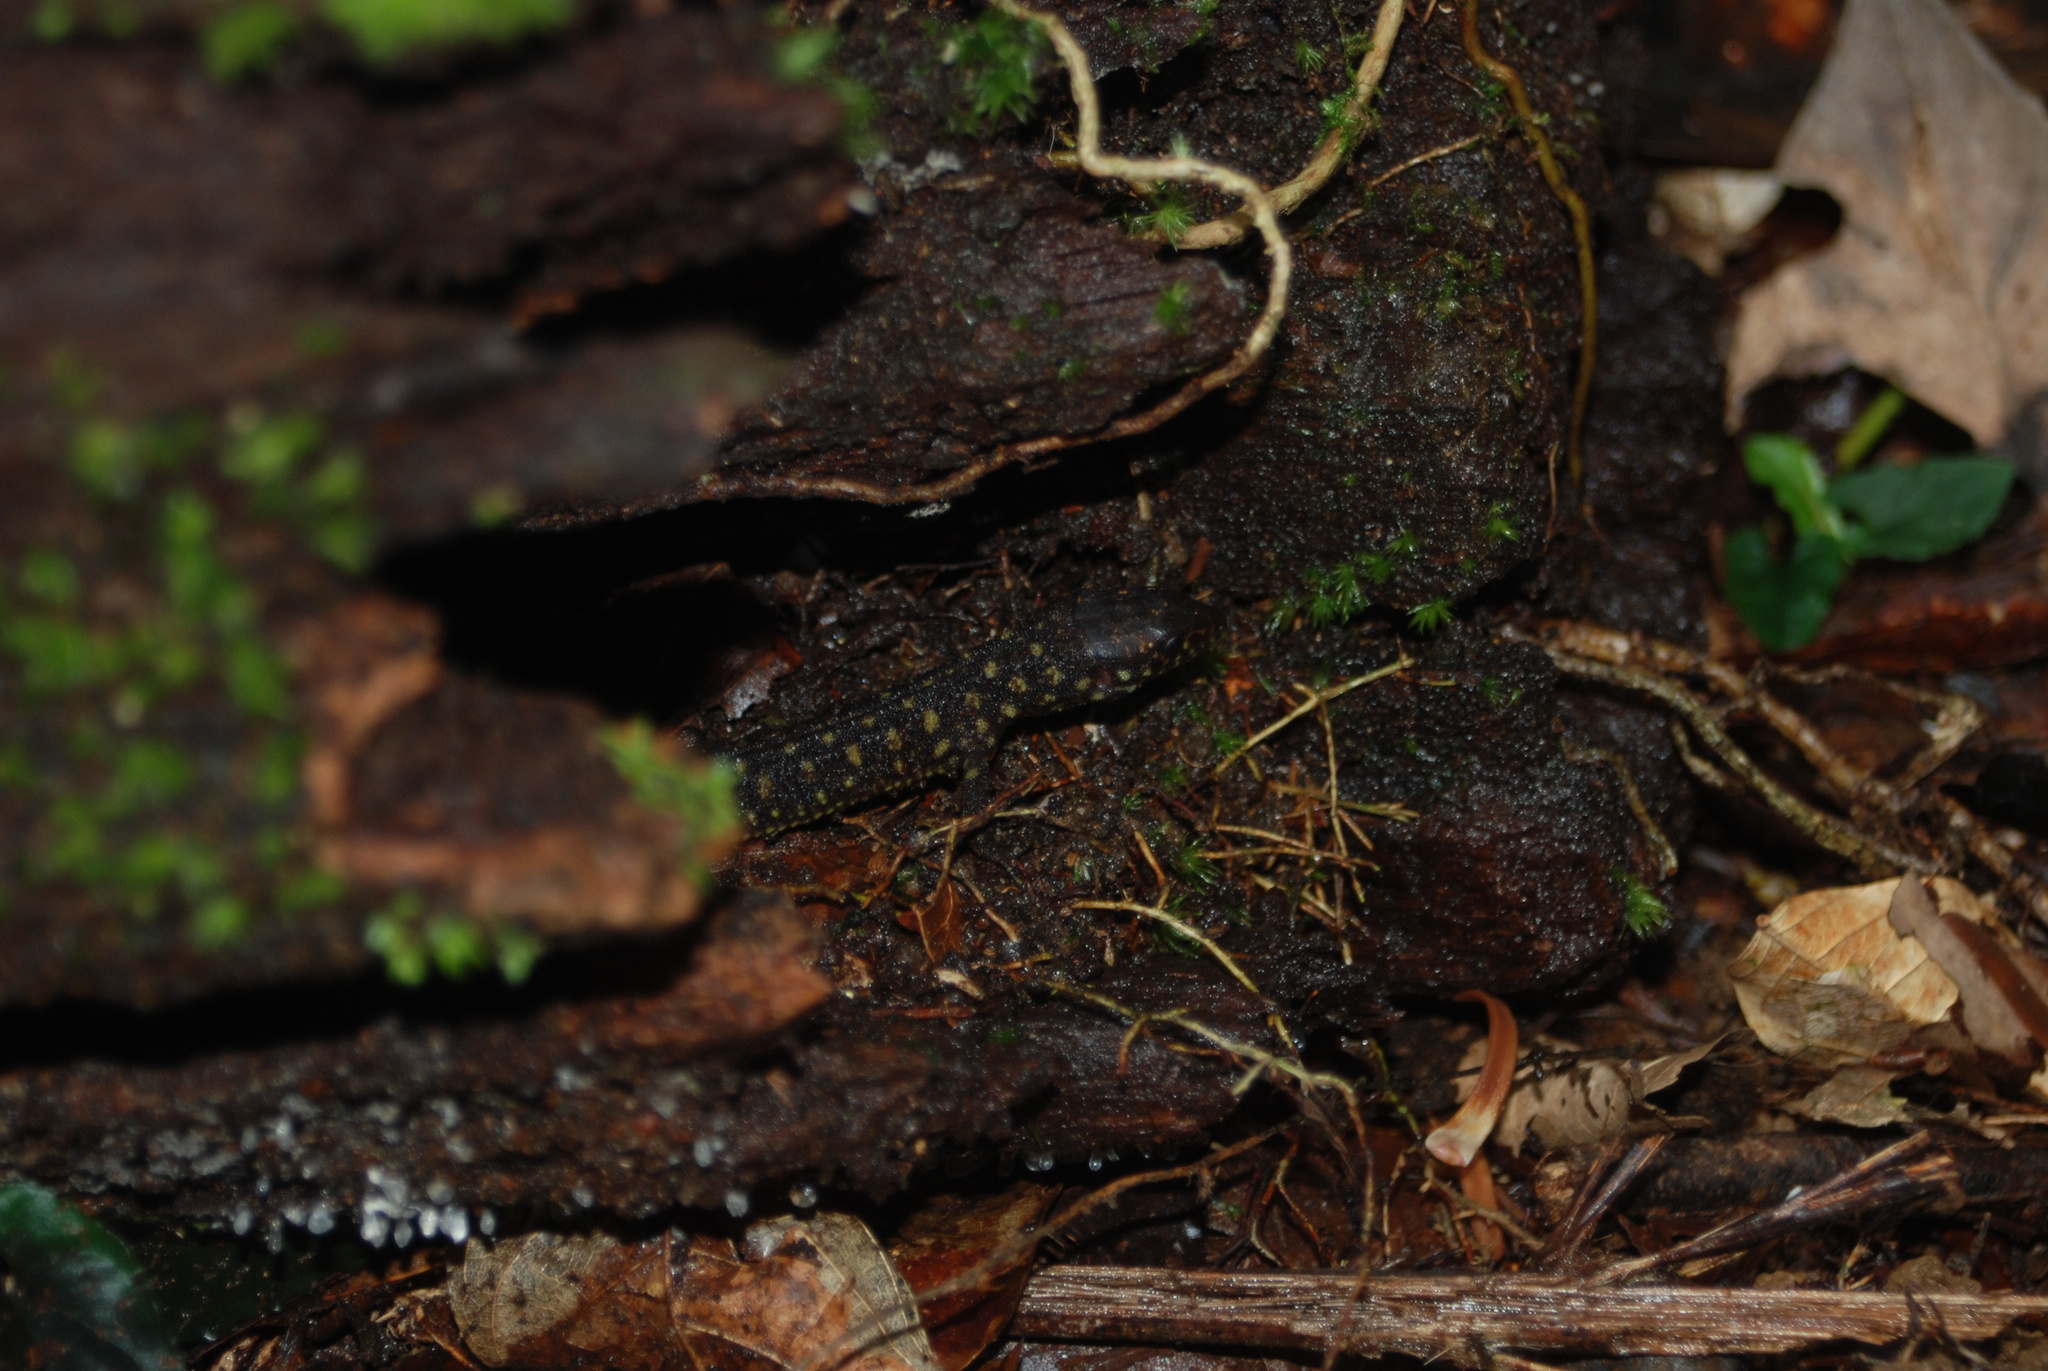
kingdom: Animalia
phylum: Chordata
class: Squamata
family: Xantusiidae
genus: Lepidophyma
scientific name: Lepidophyma flavimaculatum
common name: Yellow-spotted night lizard
